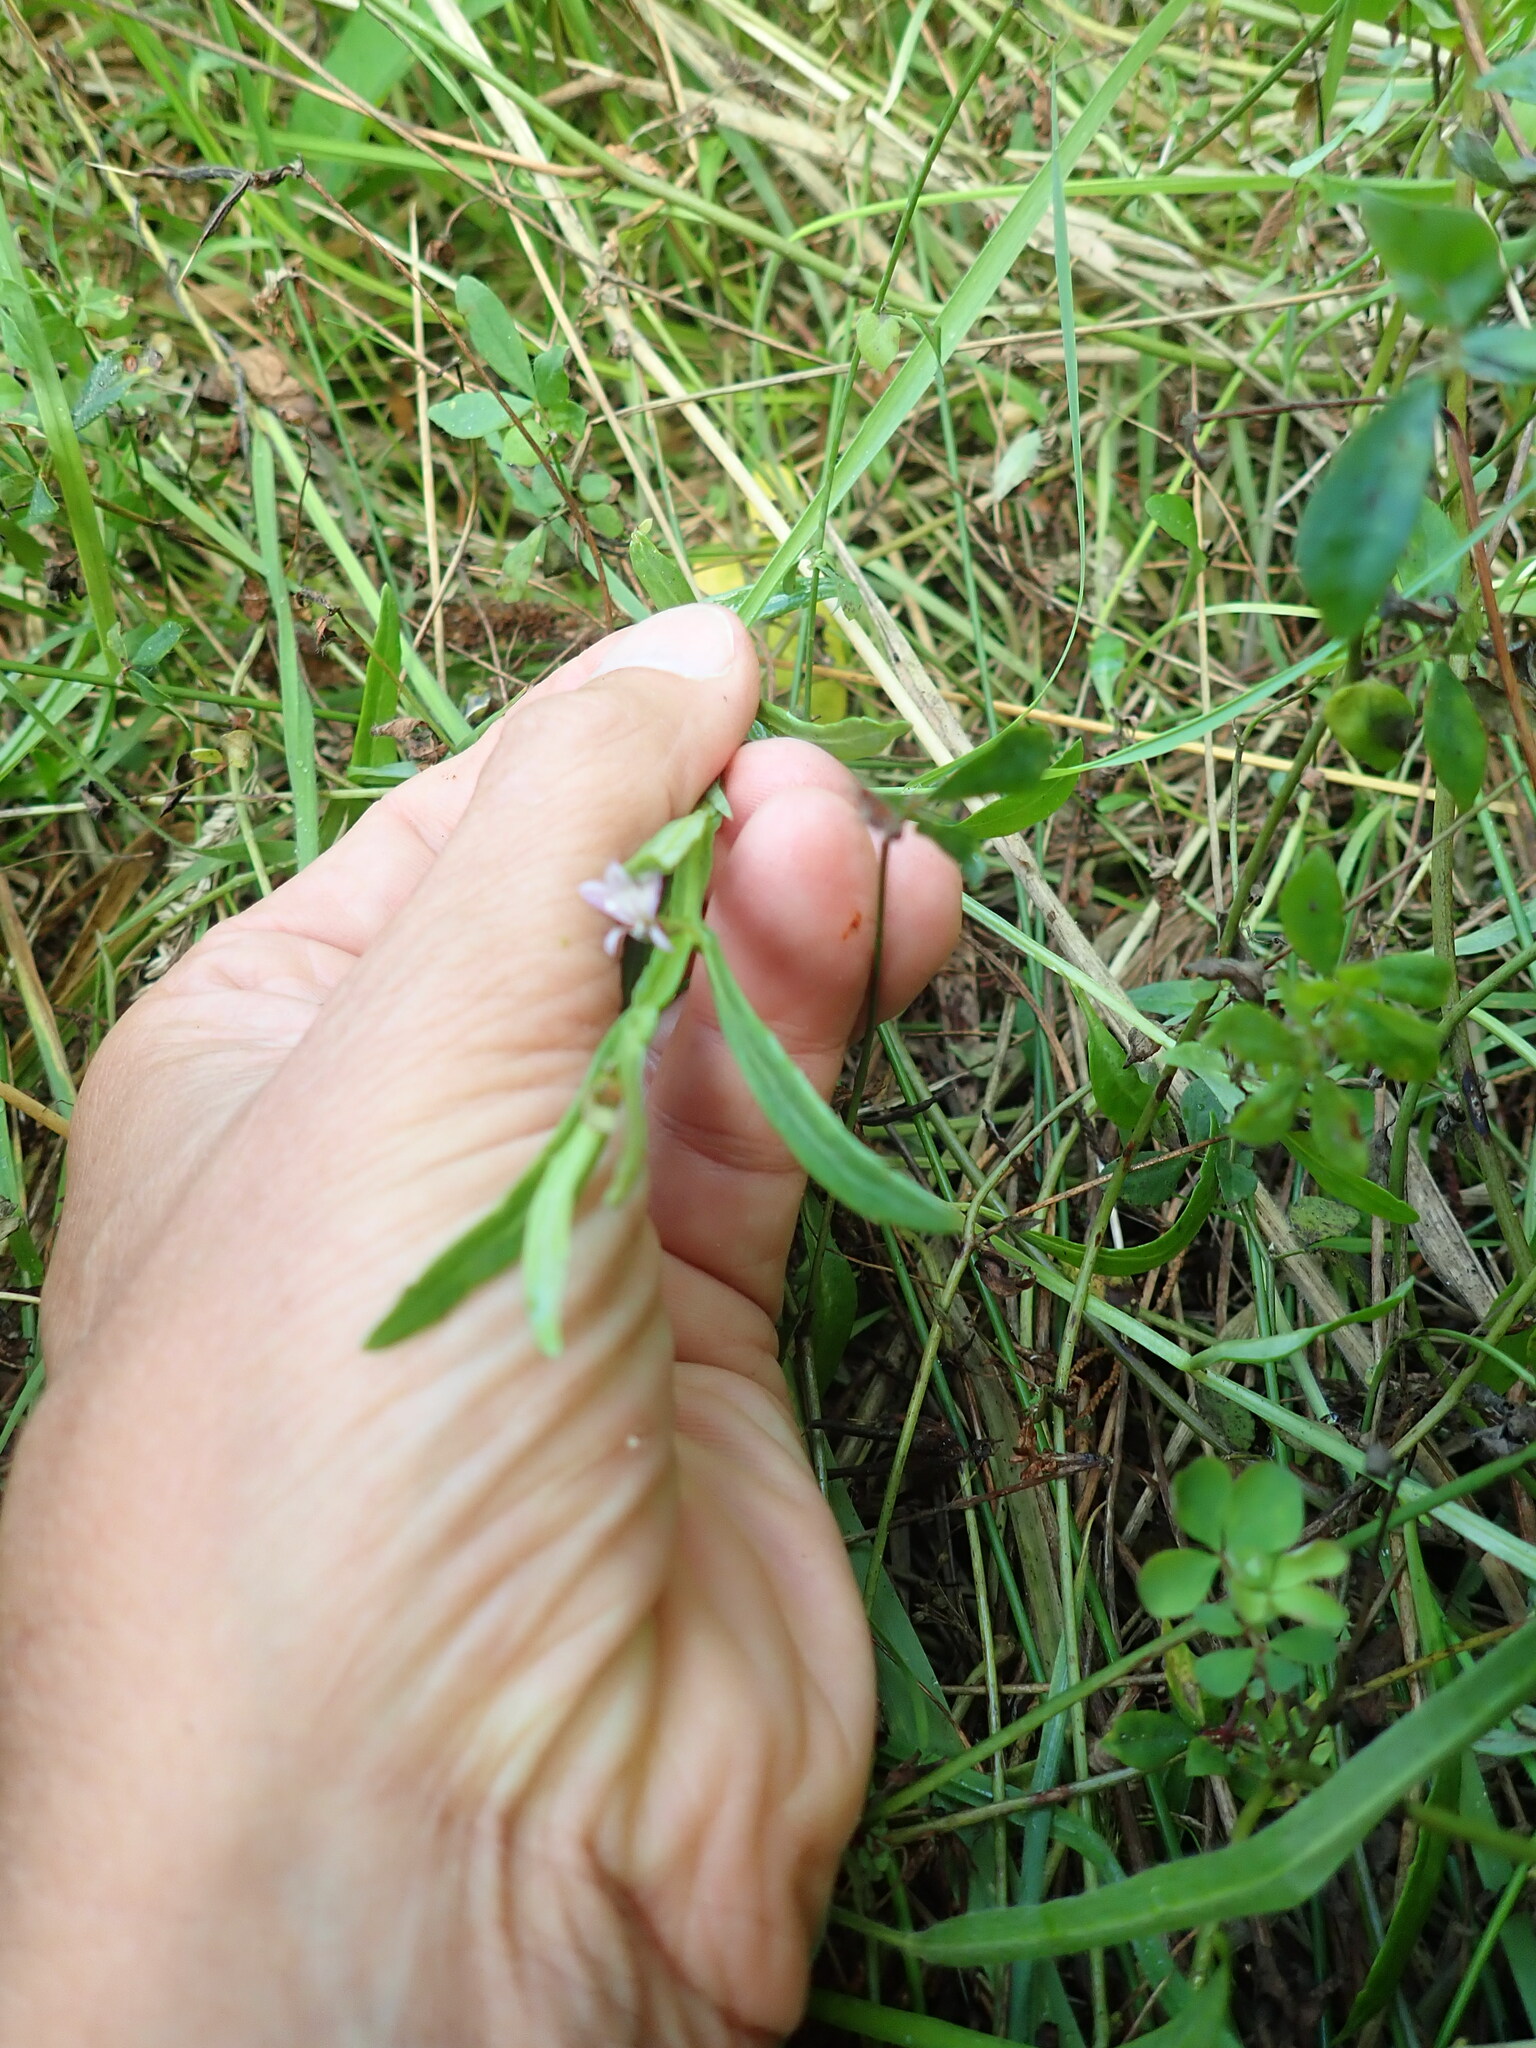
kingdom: Plantae
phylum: Tracheophyta
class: Magnoliopsida
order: Asterales
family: Campanulaceae
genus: Lobelia
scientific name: Lobelia anceps
